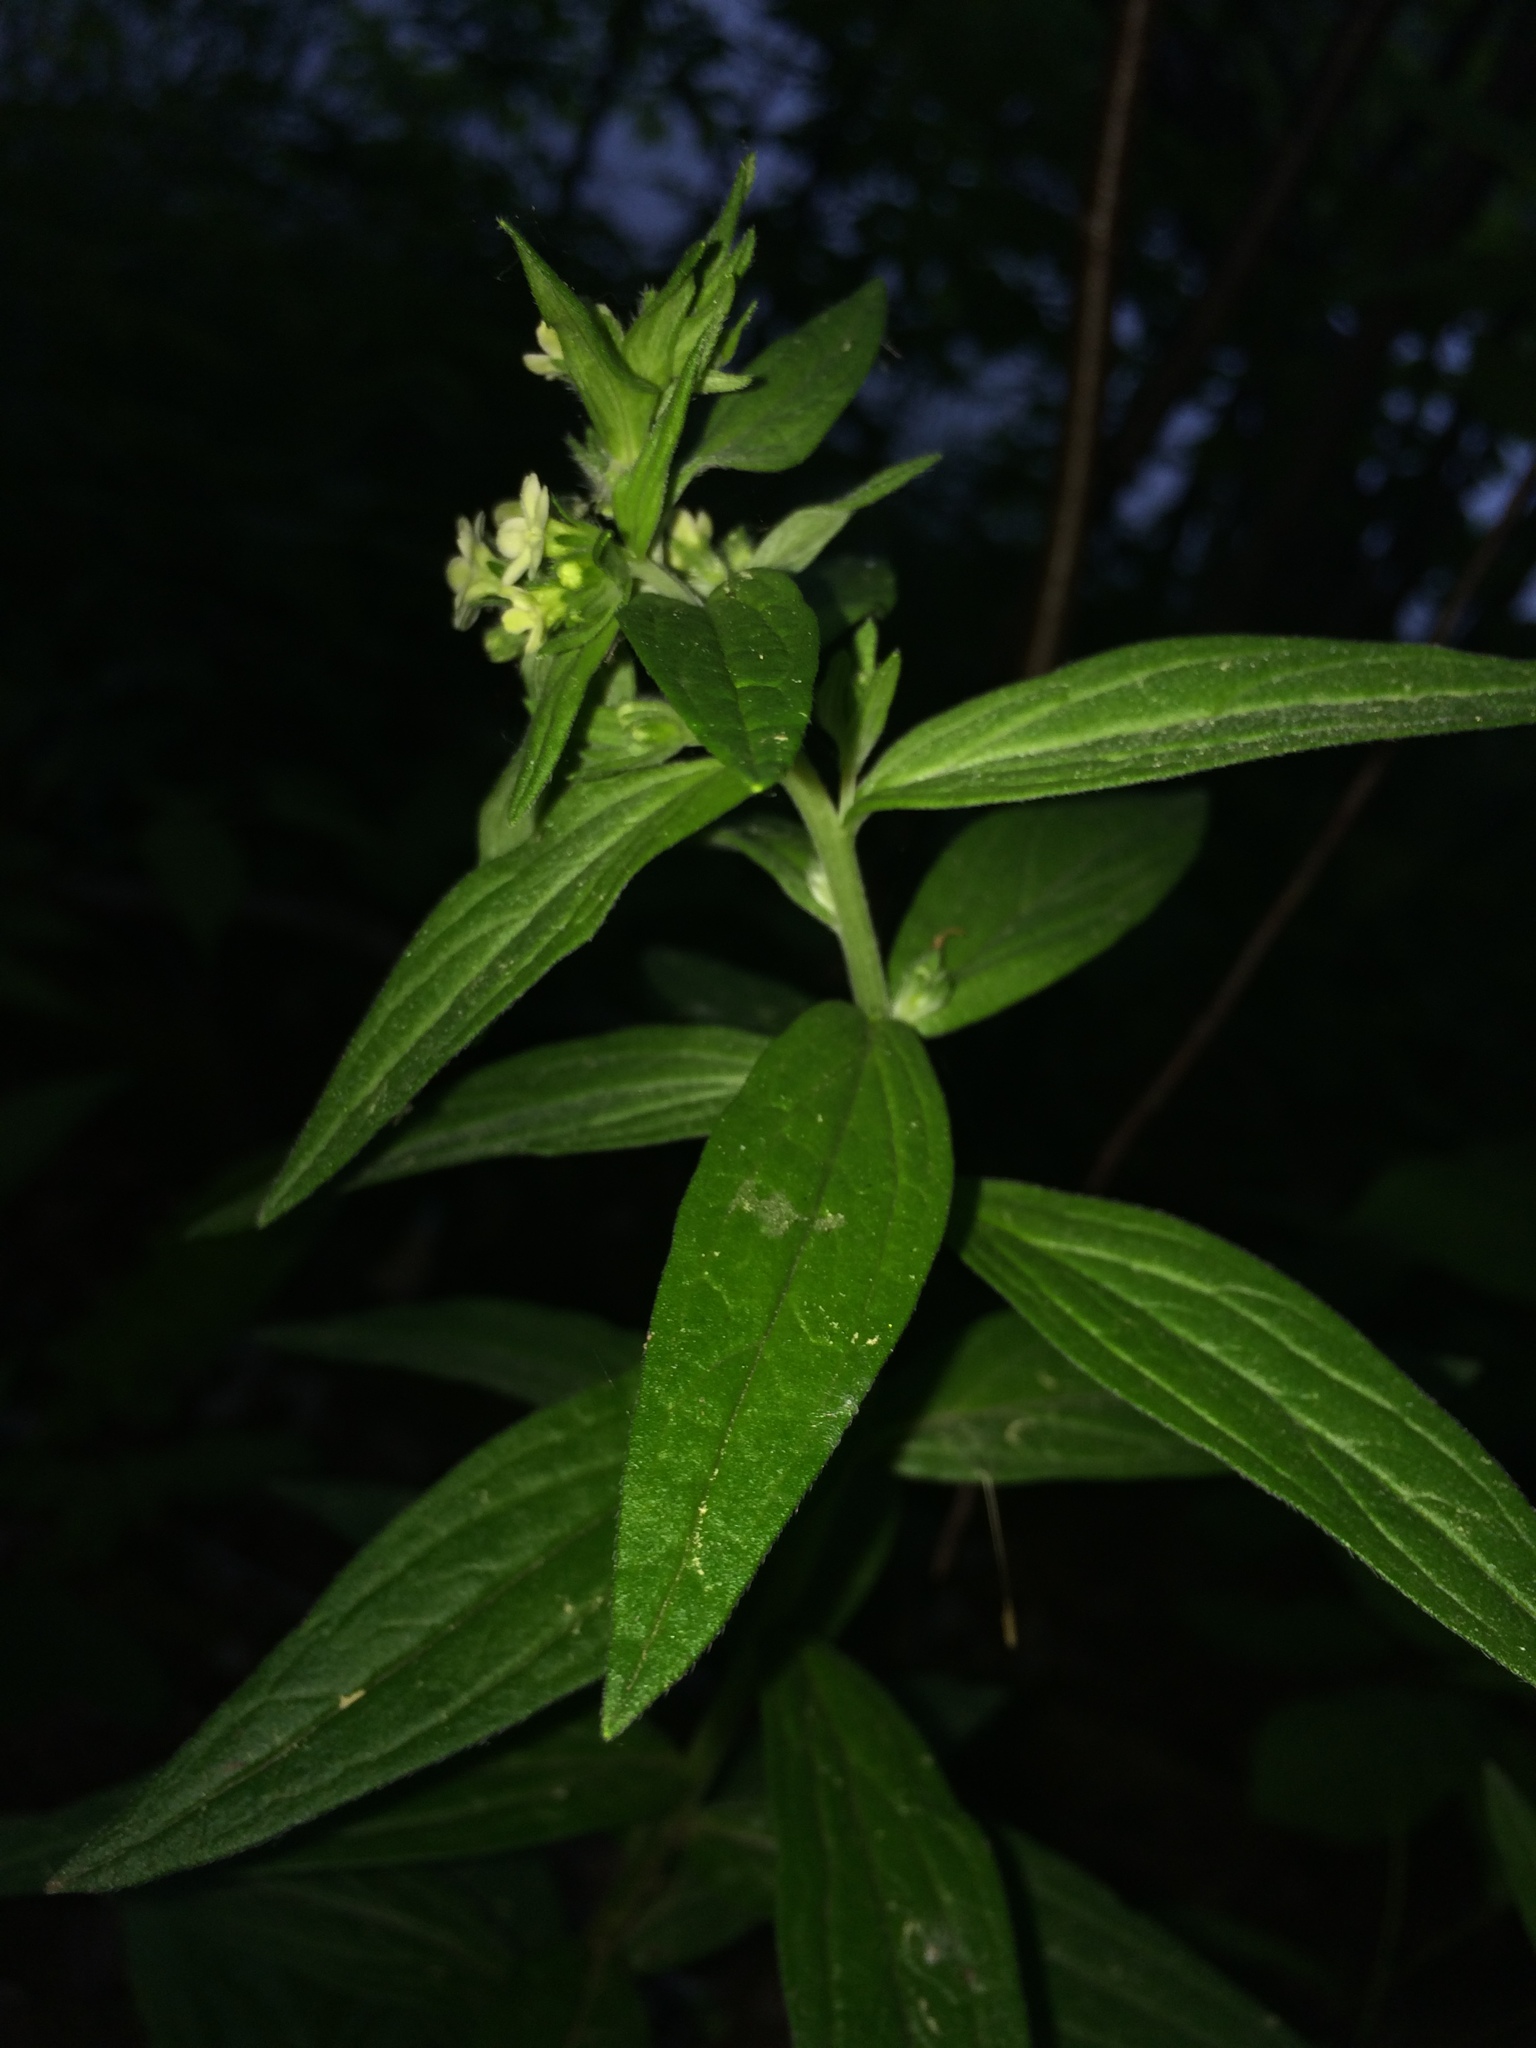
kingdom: Plantae
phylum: Tracheophyta
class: Magnoliopsida
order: Boraginales
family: Boraginaceae
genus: Lithospermum
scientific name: Lithospermum officinale
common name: Common gromwell
